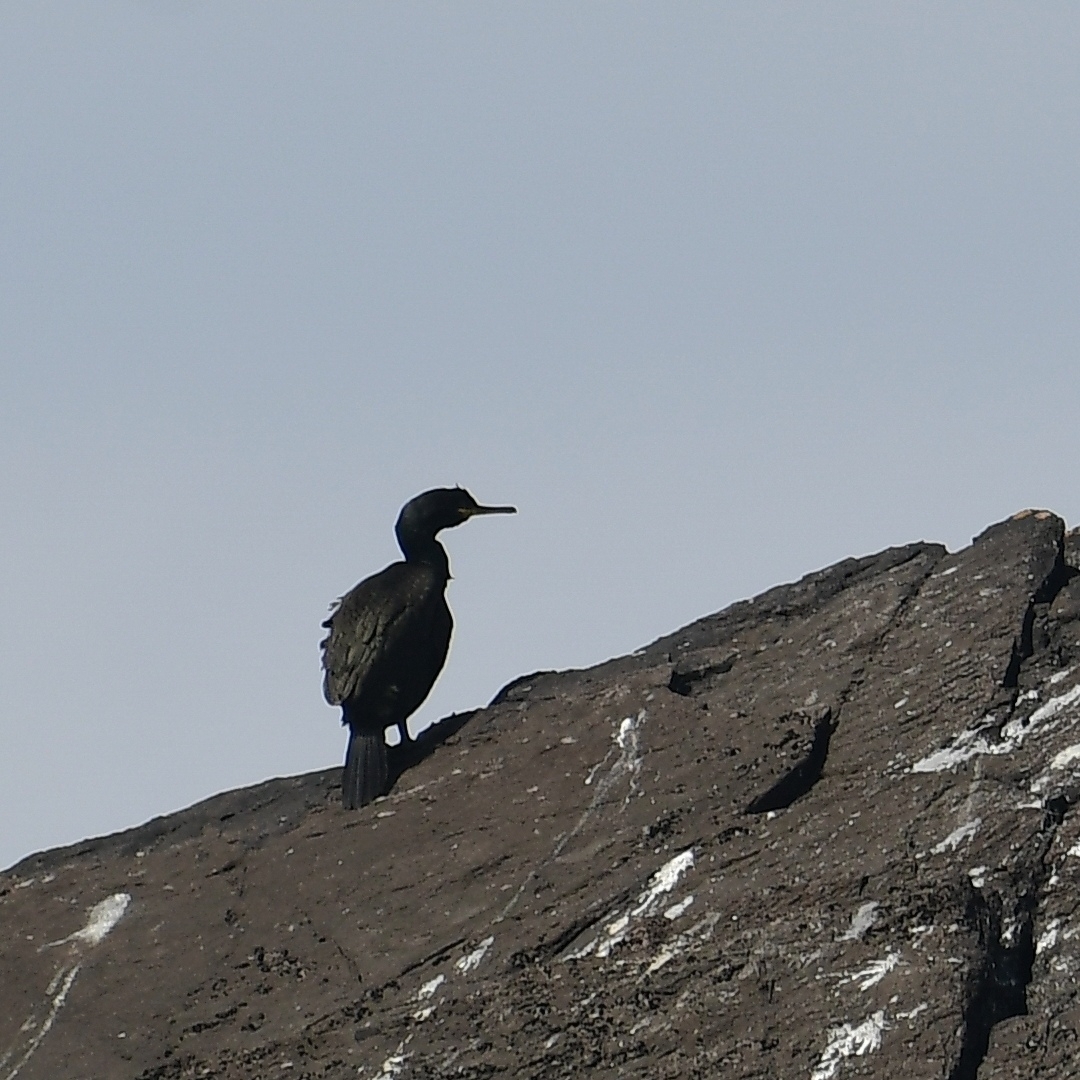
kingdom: Animalia
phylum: Chordata
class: Aves
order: Suliformes
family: Phalacrocoracidae
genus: Phalacrocorax
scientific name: Phalacrocorax aristotelis
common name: European shag
